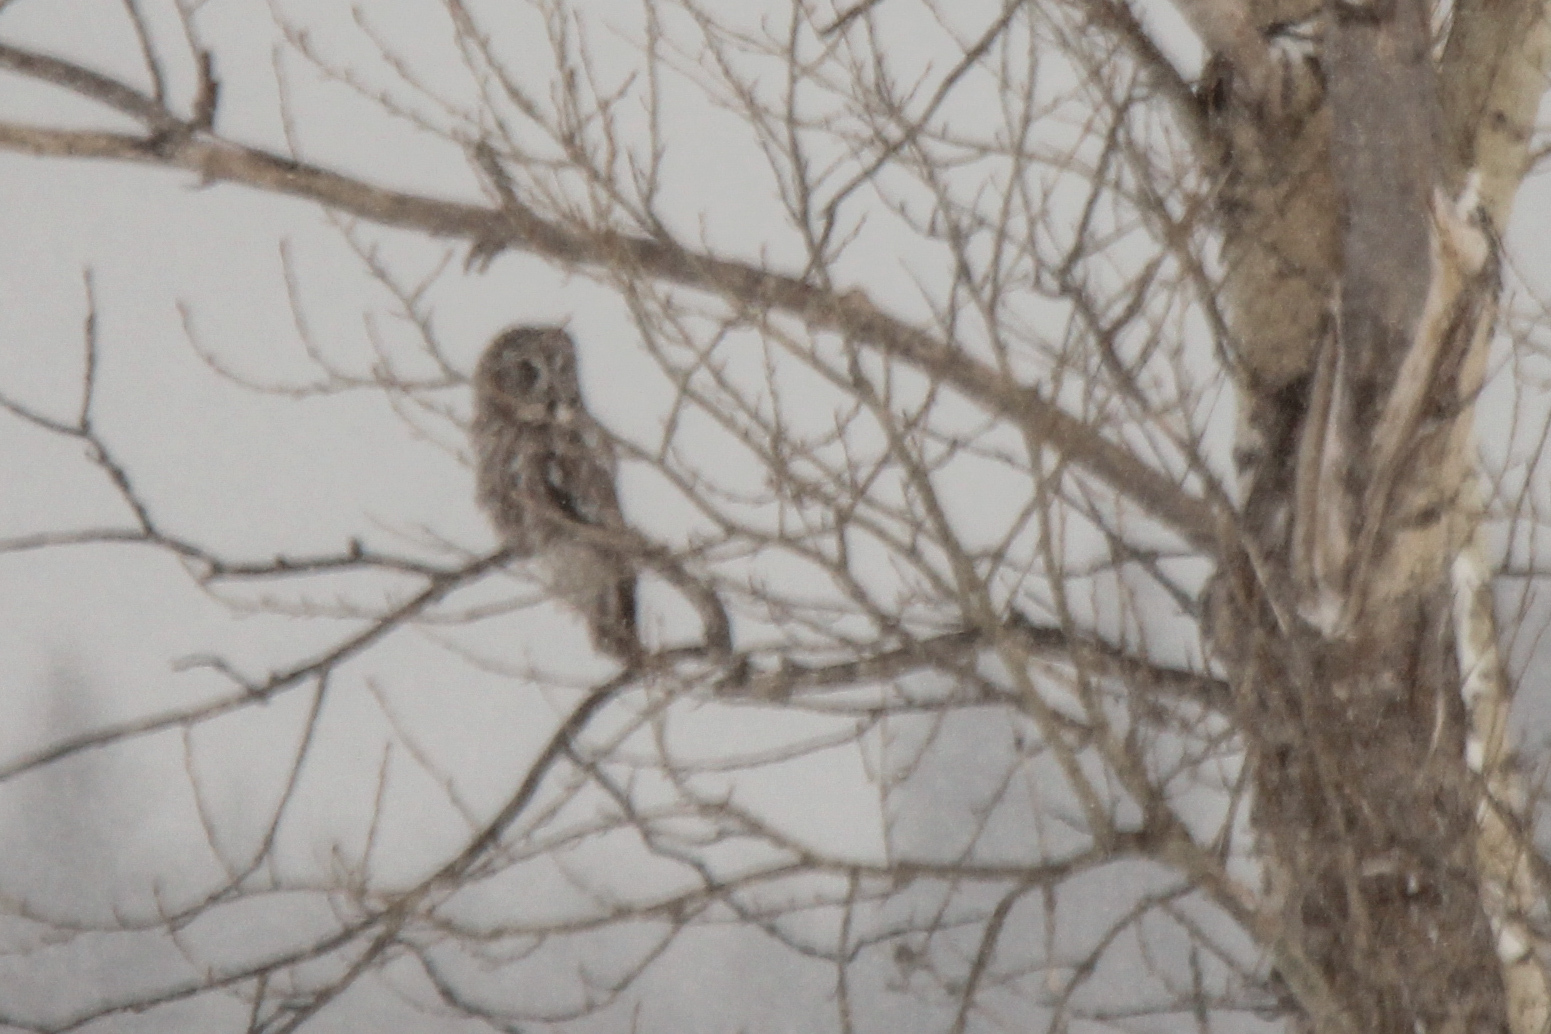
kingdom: Animalia
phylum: Chordata
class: Aves
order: Strigiformes
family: Strigidae
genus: Strix
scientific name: Strix nebulosa
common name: Great grey owl
